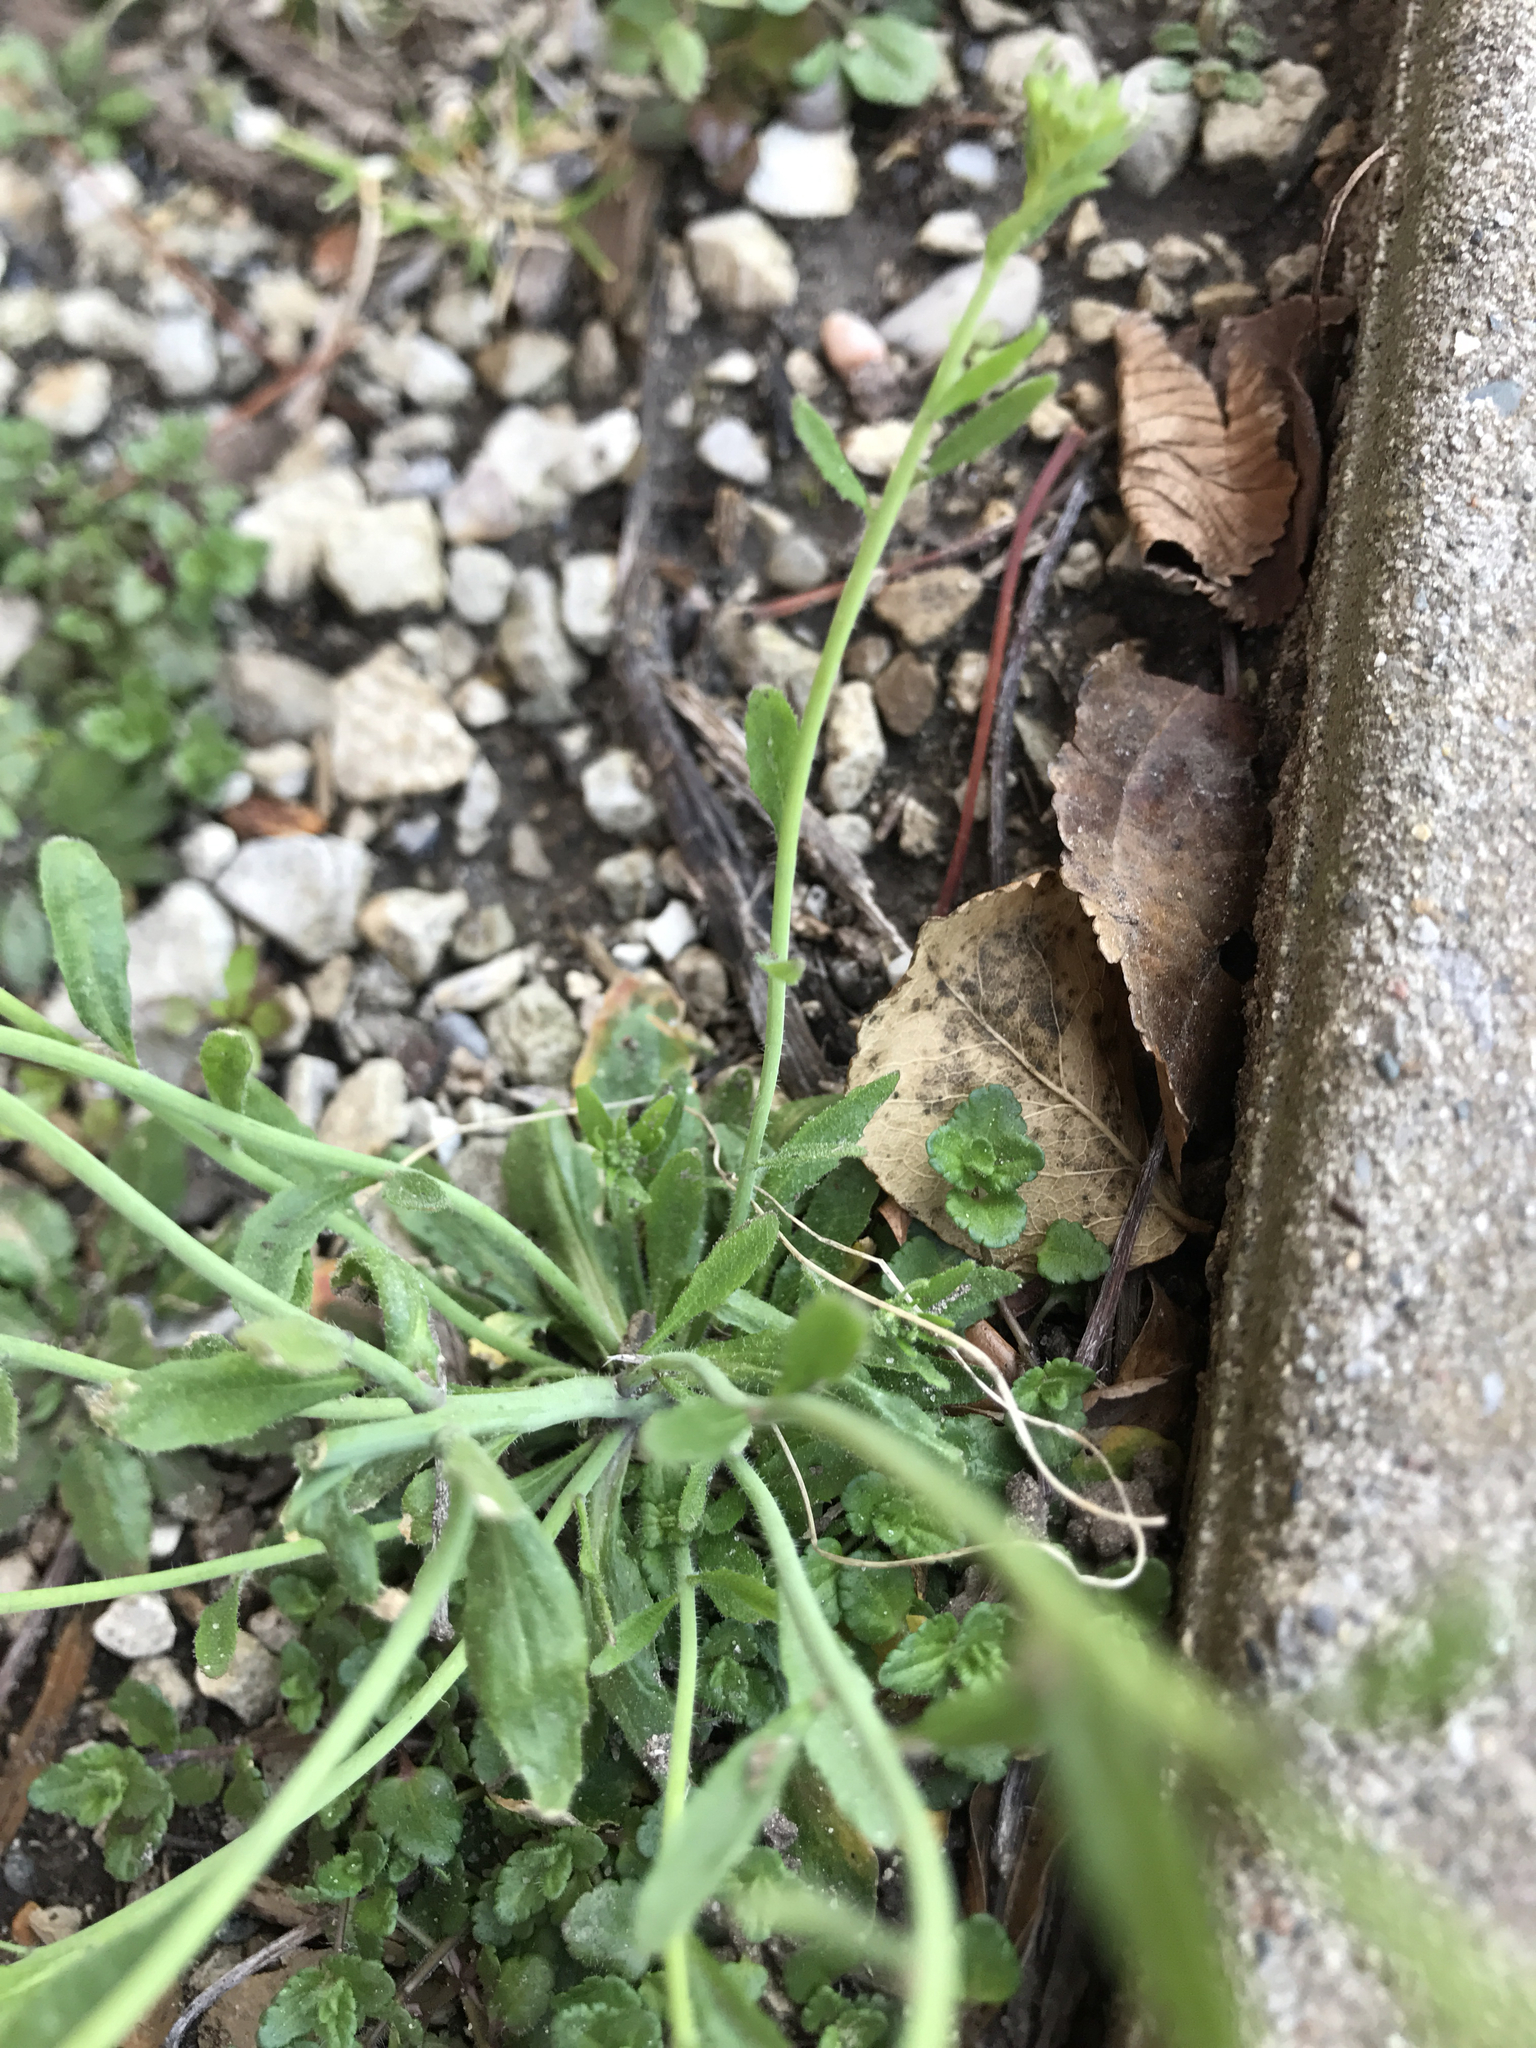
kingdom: Plantae
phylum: Tracheophyta
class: Magnoliopsida
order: Brassicales
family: Brassicaceae
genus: Arabidopsis
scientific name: Arabidopsis thaliana
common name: Thale cress
